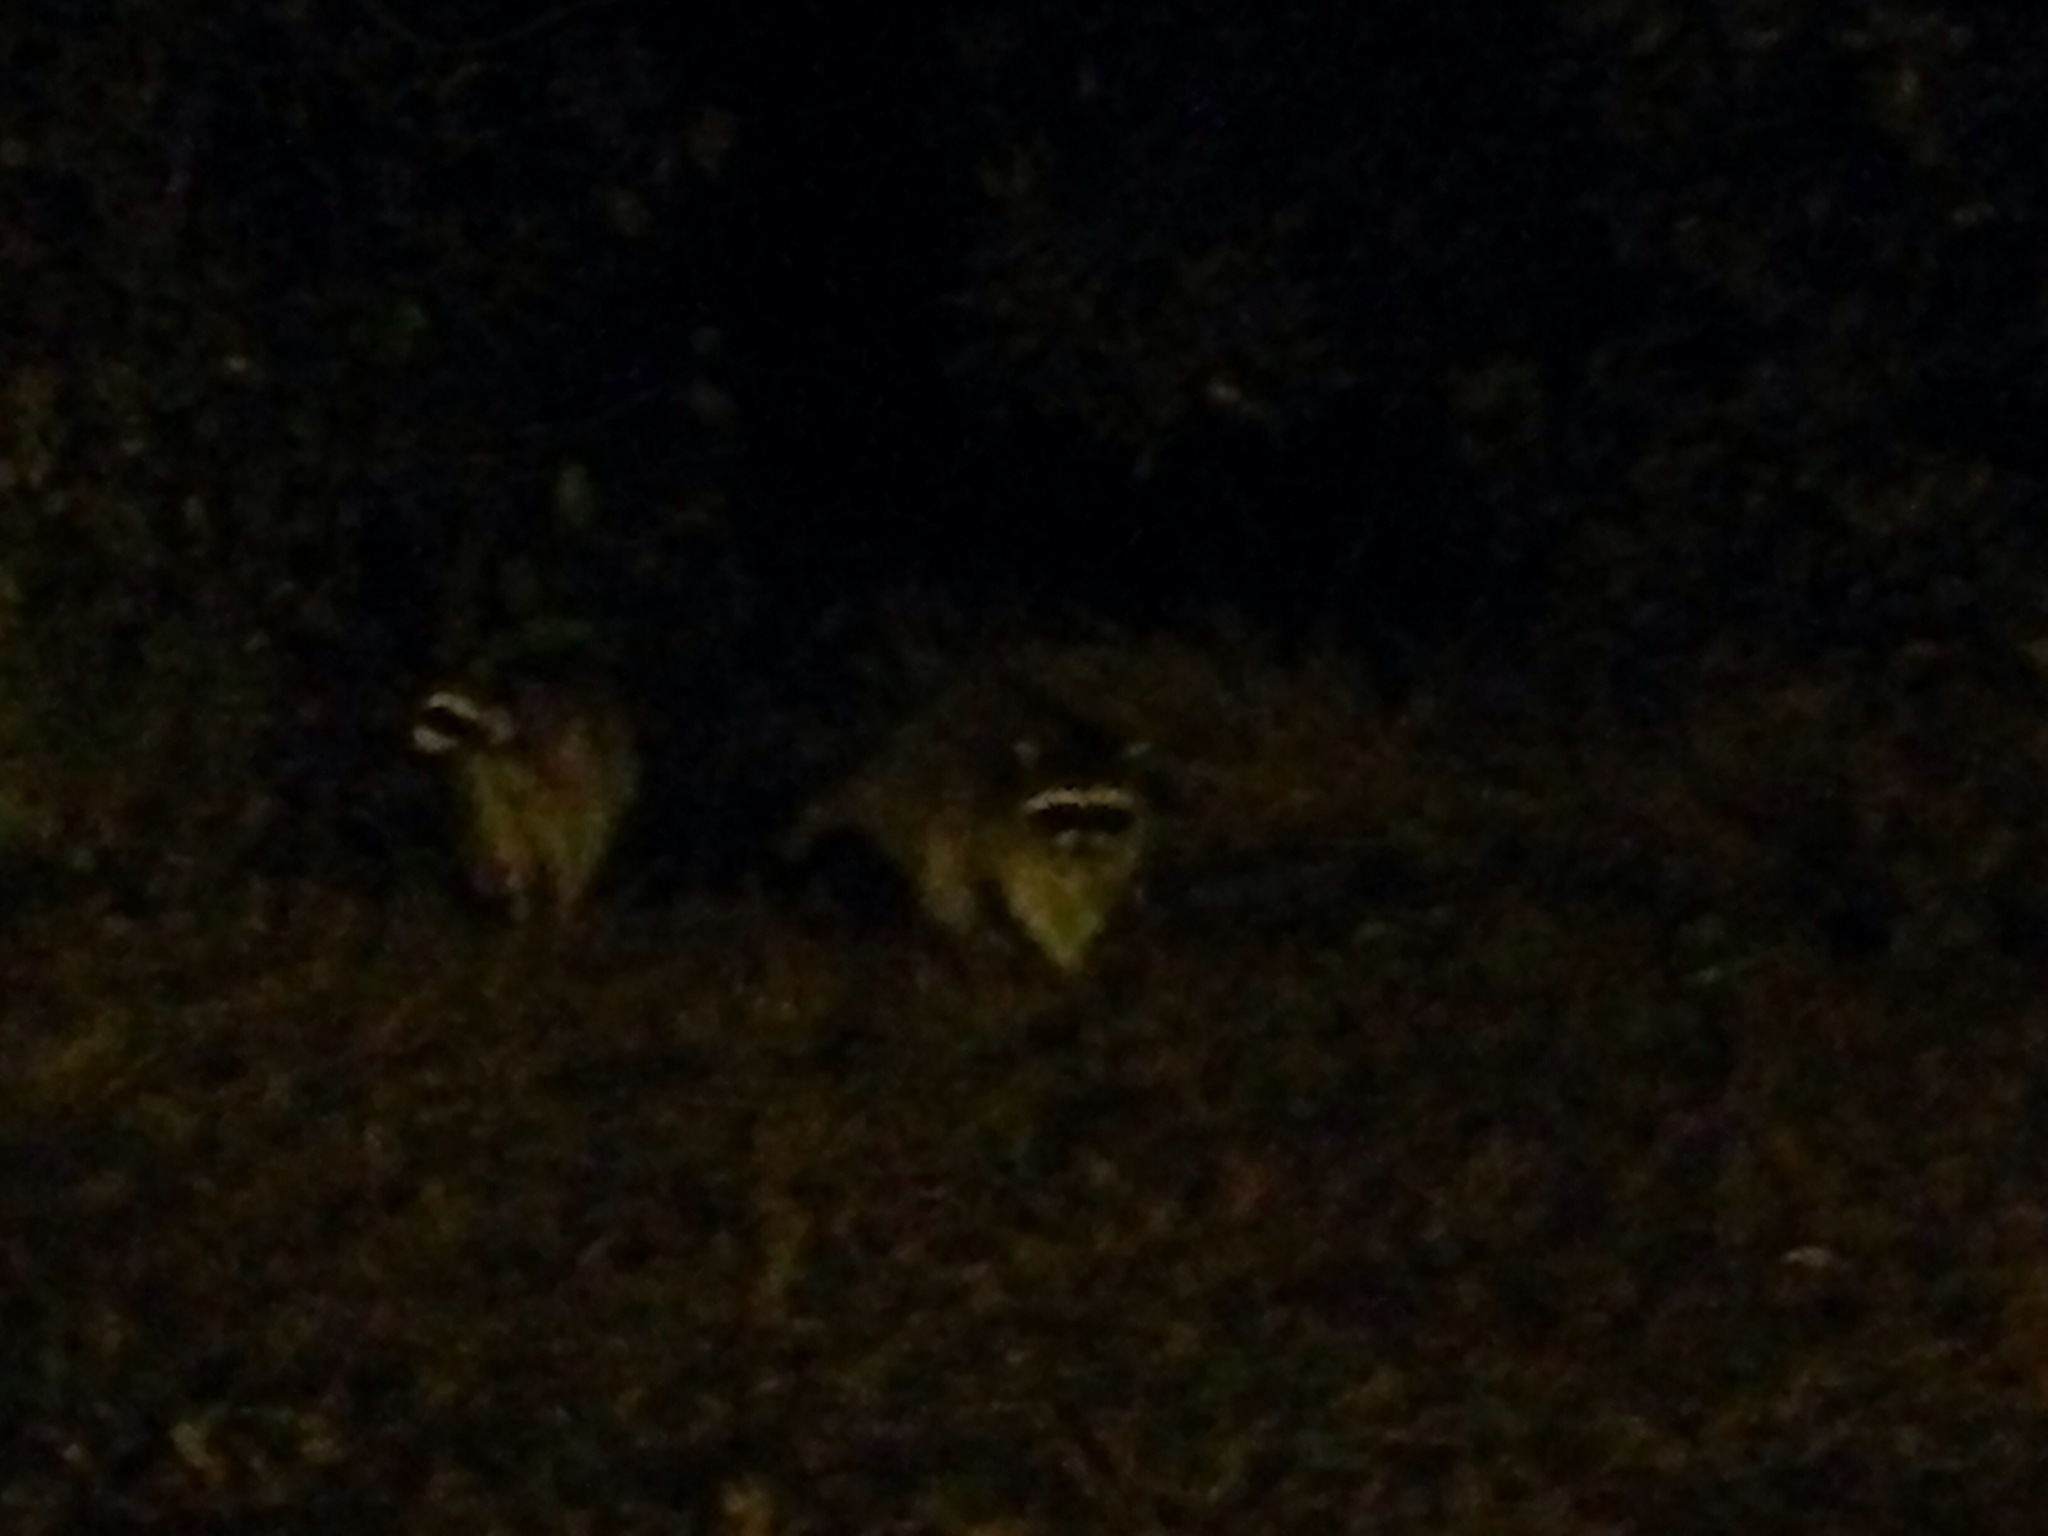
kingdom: Animalia
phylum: Chordata
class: Mammalia
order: Carnivora
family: Procyonidae
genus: Procyon
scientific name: Procyon lotor
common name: Raccoon
